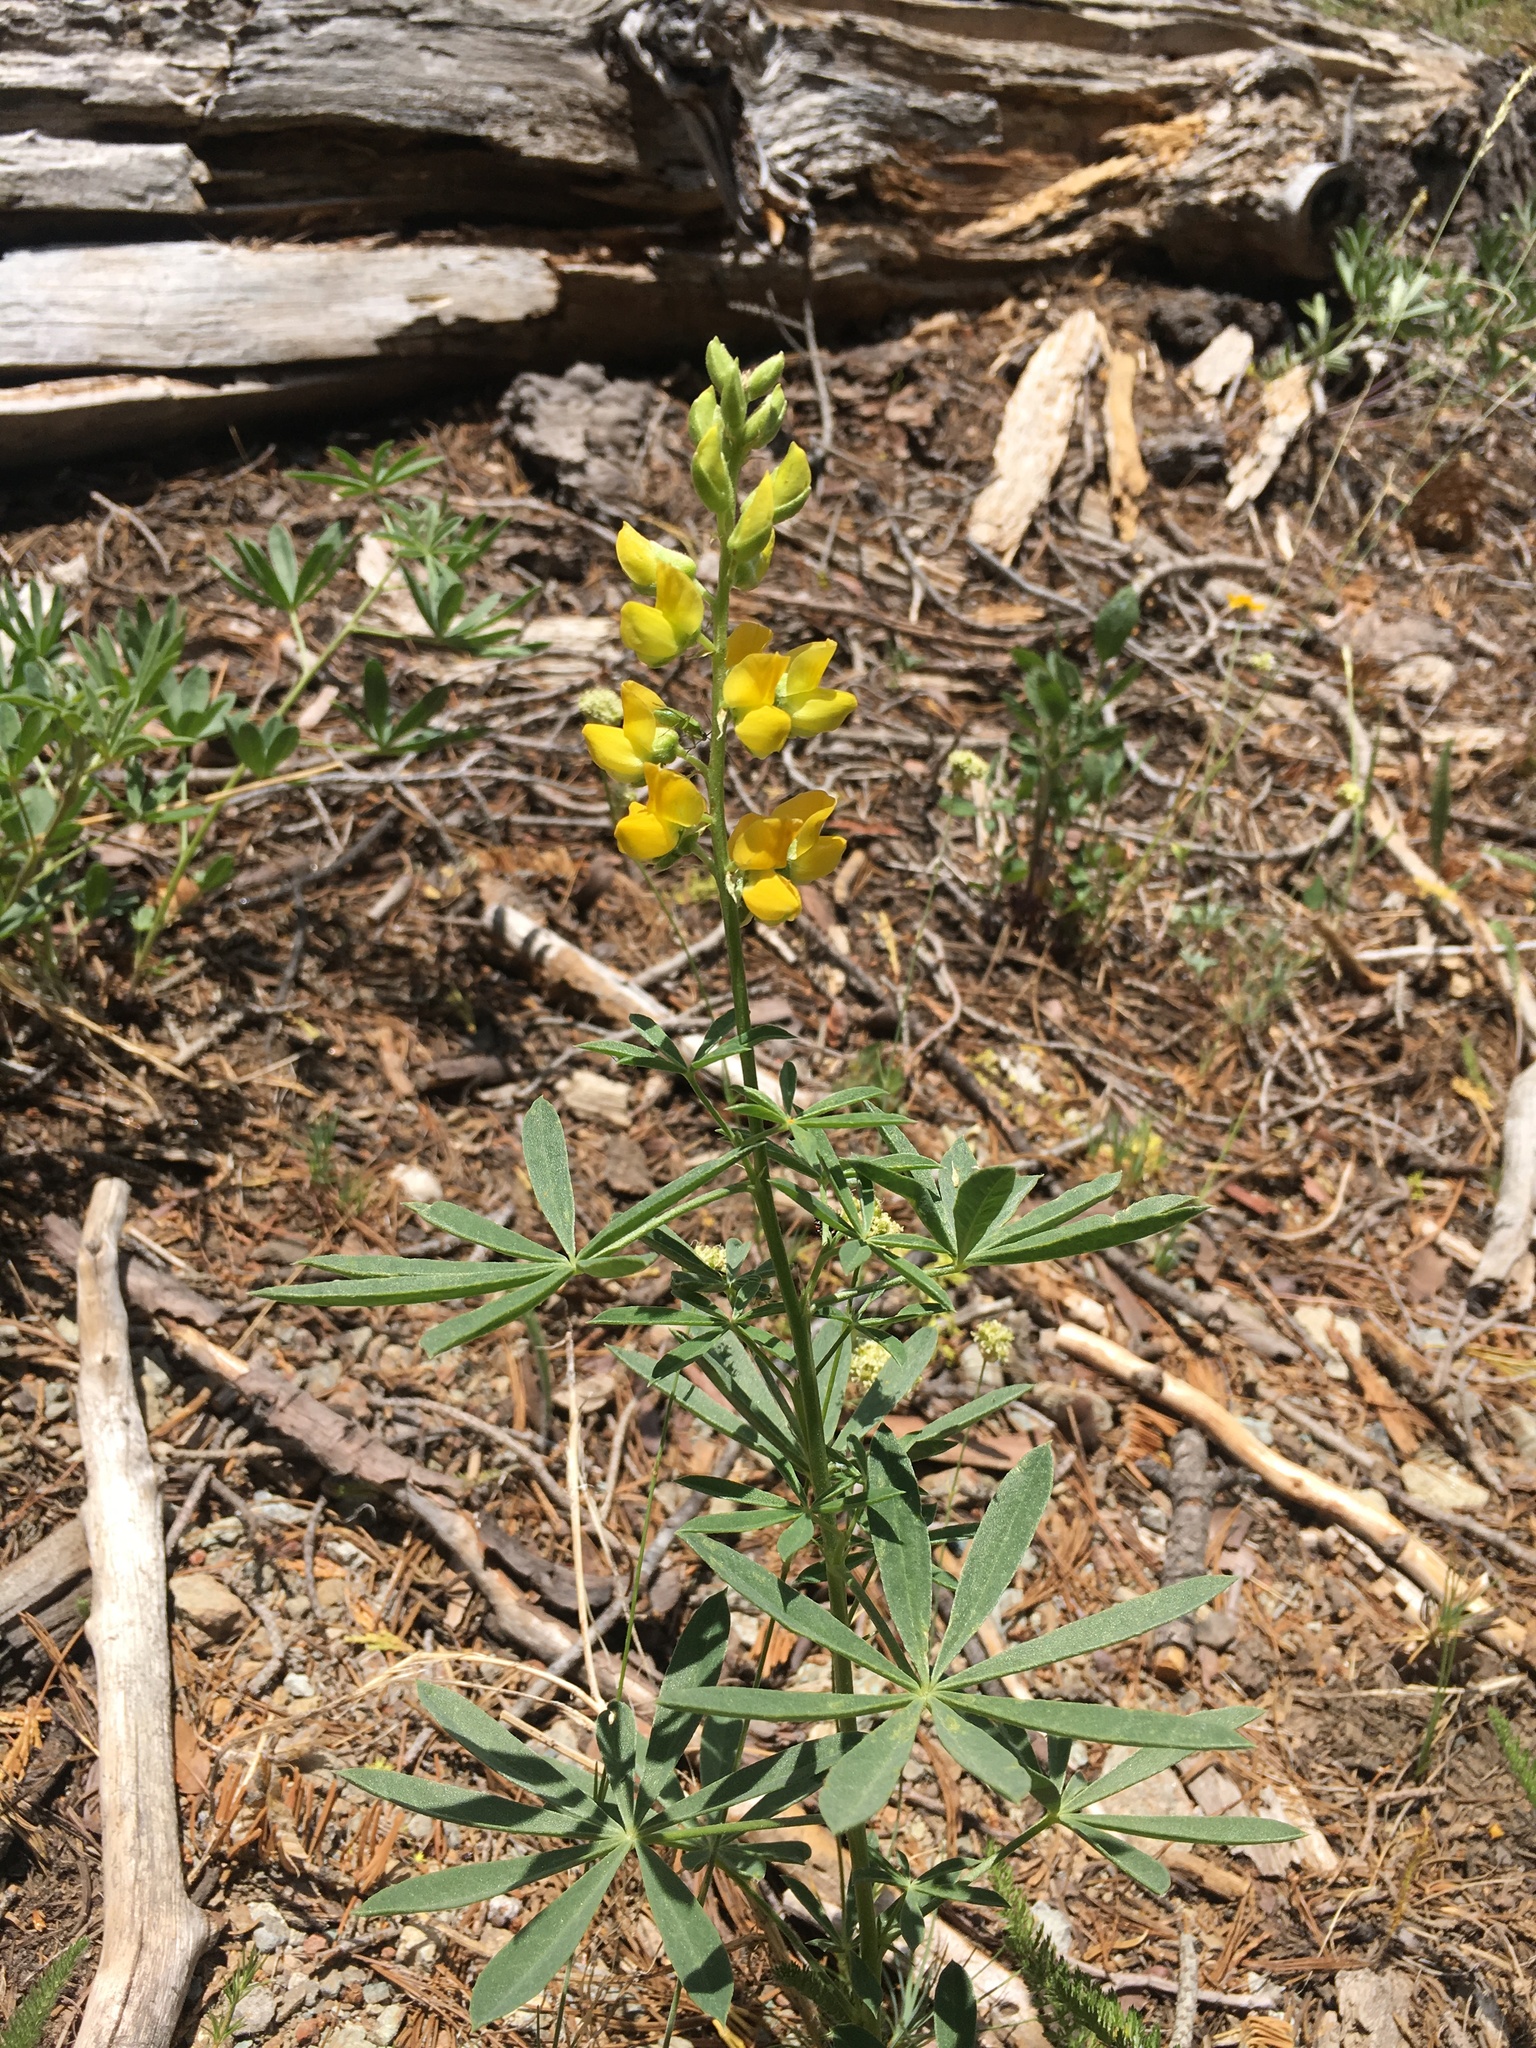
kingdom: Plantae
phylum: Tracheophyta
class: Magnoliopsida
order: Fabales
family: Fabaceae
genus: Lupinus
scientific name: Lupinus croceus
